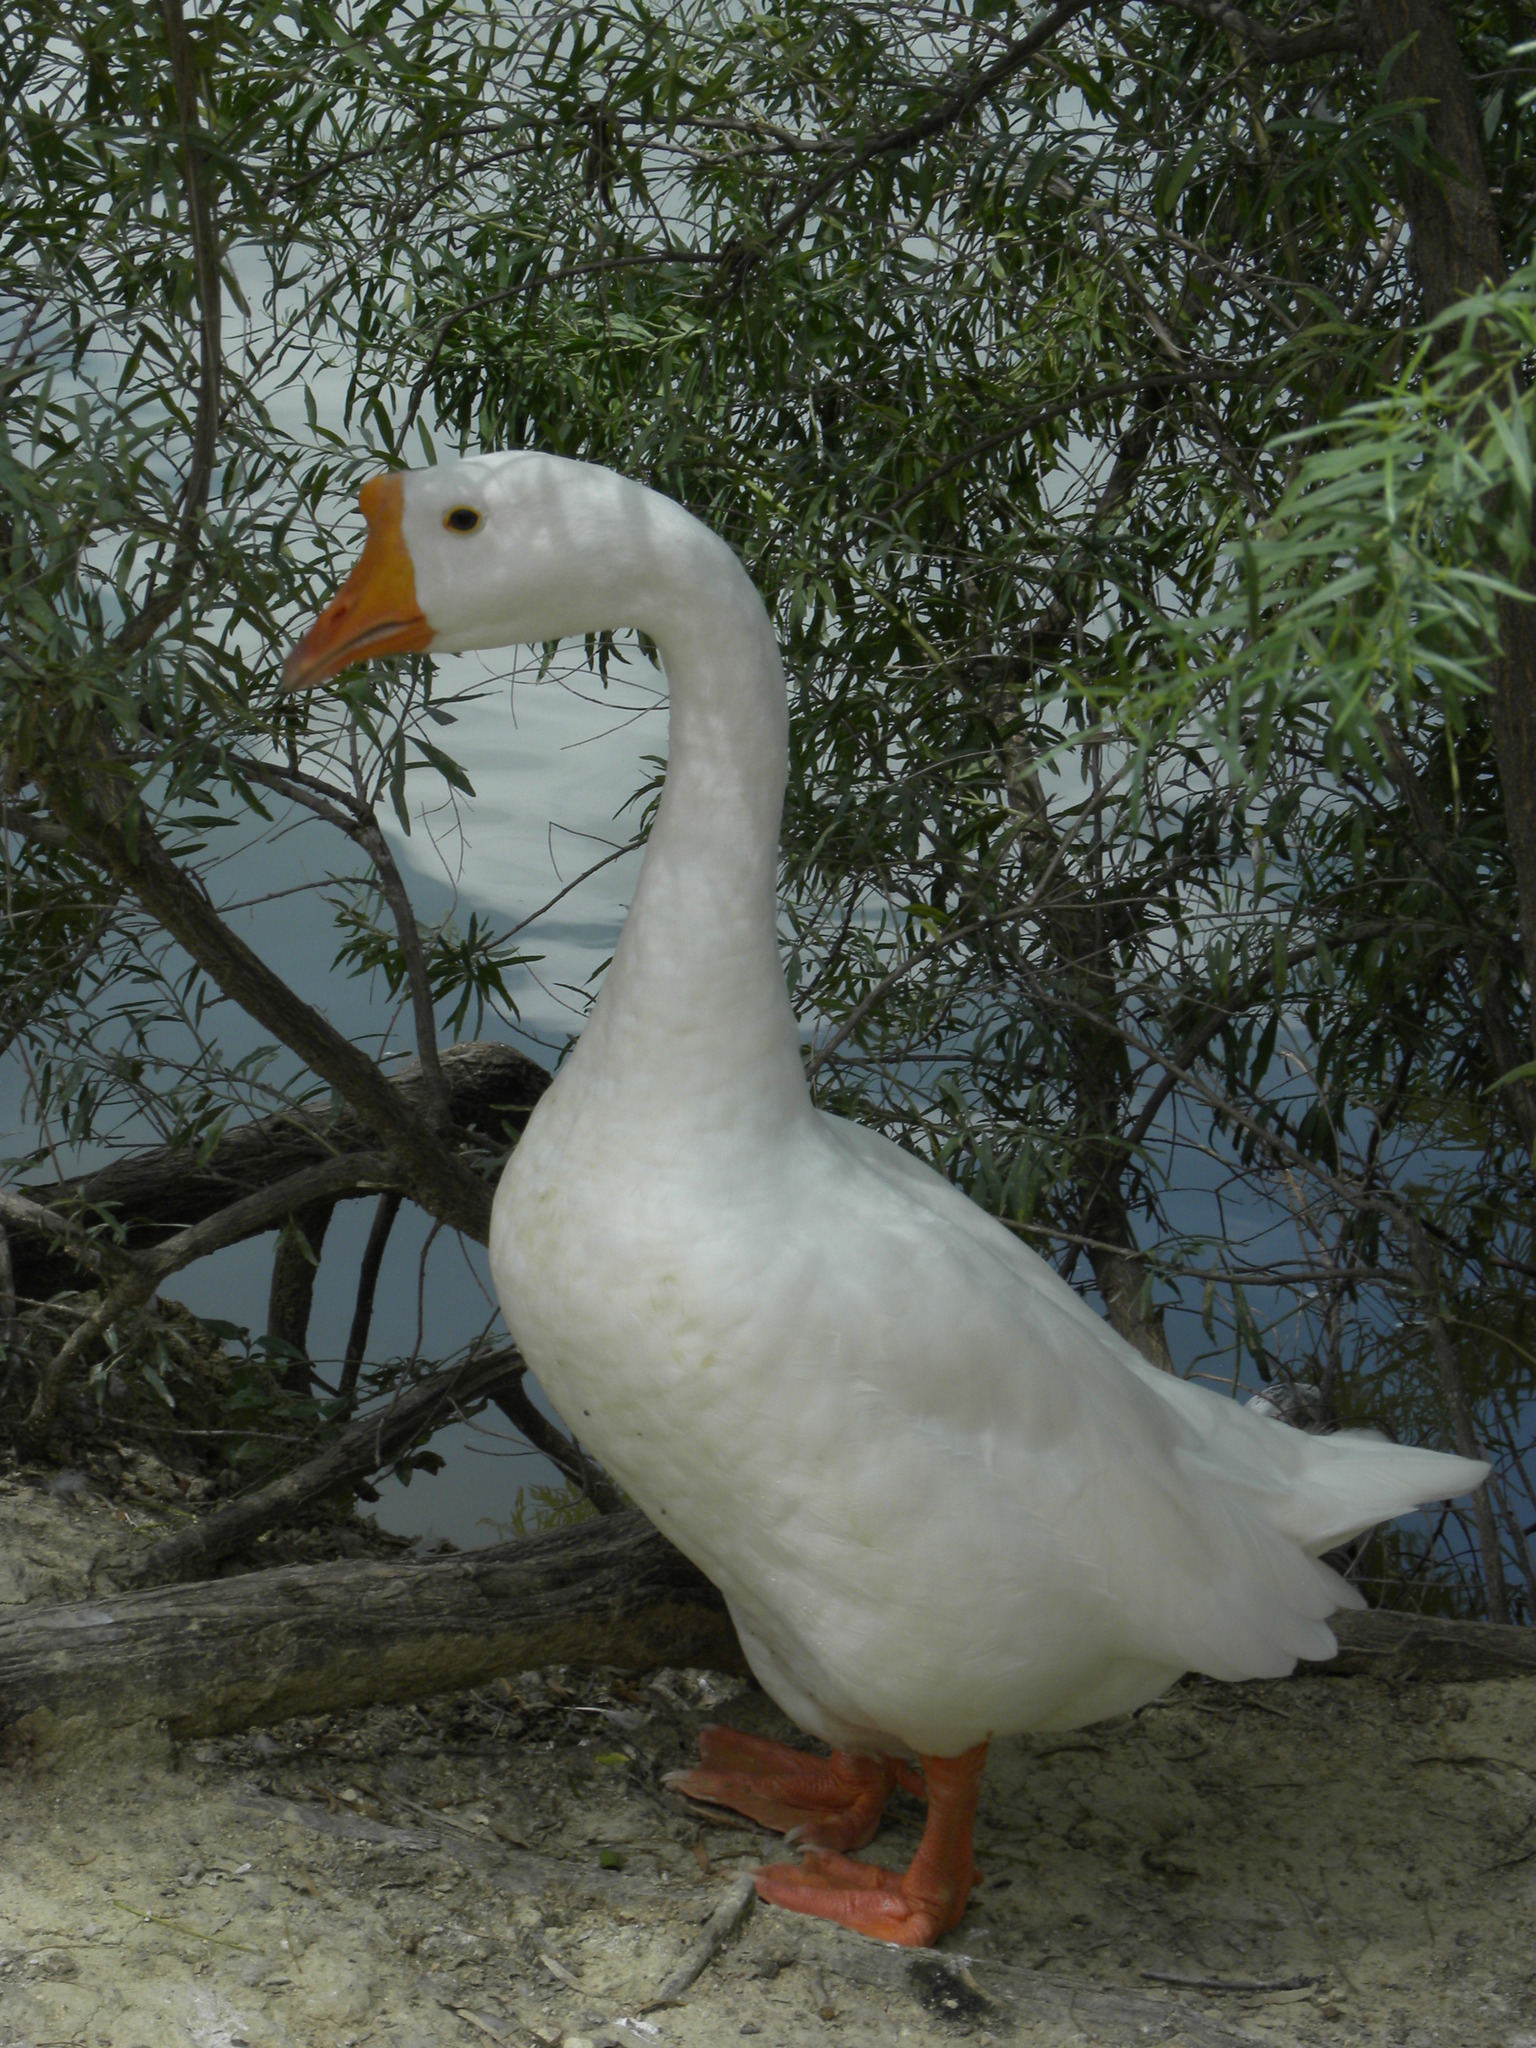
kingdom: Animalia
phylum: Chordata
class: Aves
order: Anseriformes
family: Anatidae
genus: Anser
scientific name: Anser cygnoides
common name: Swan goose
